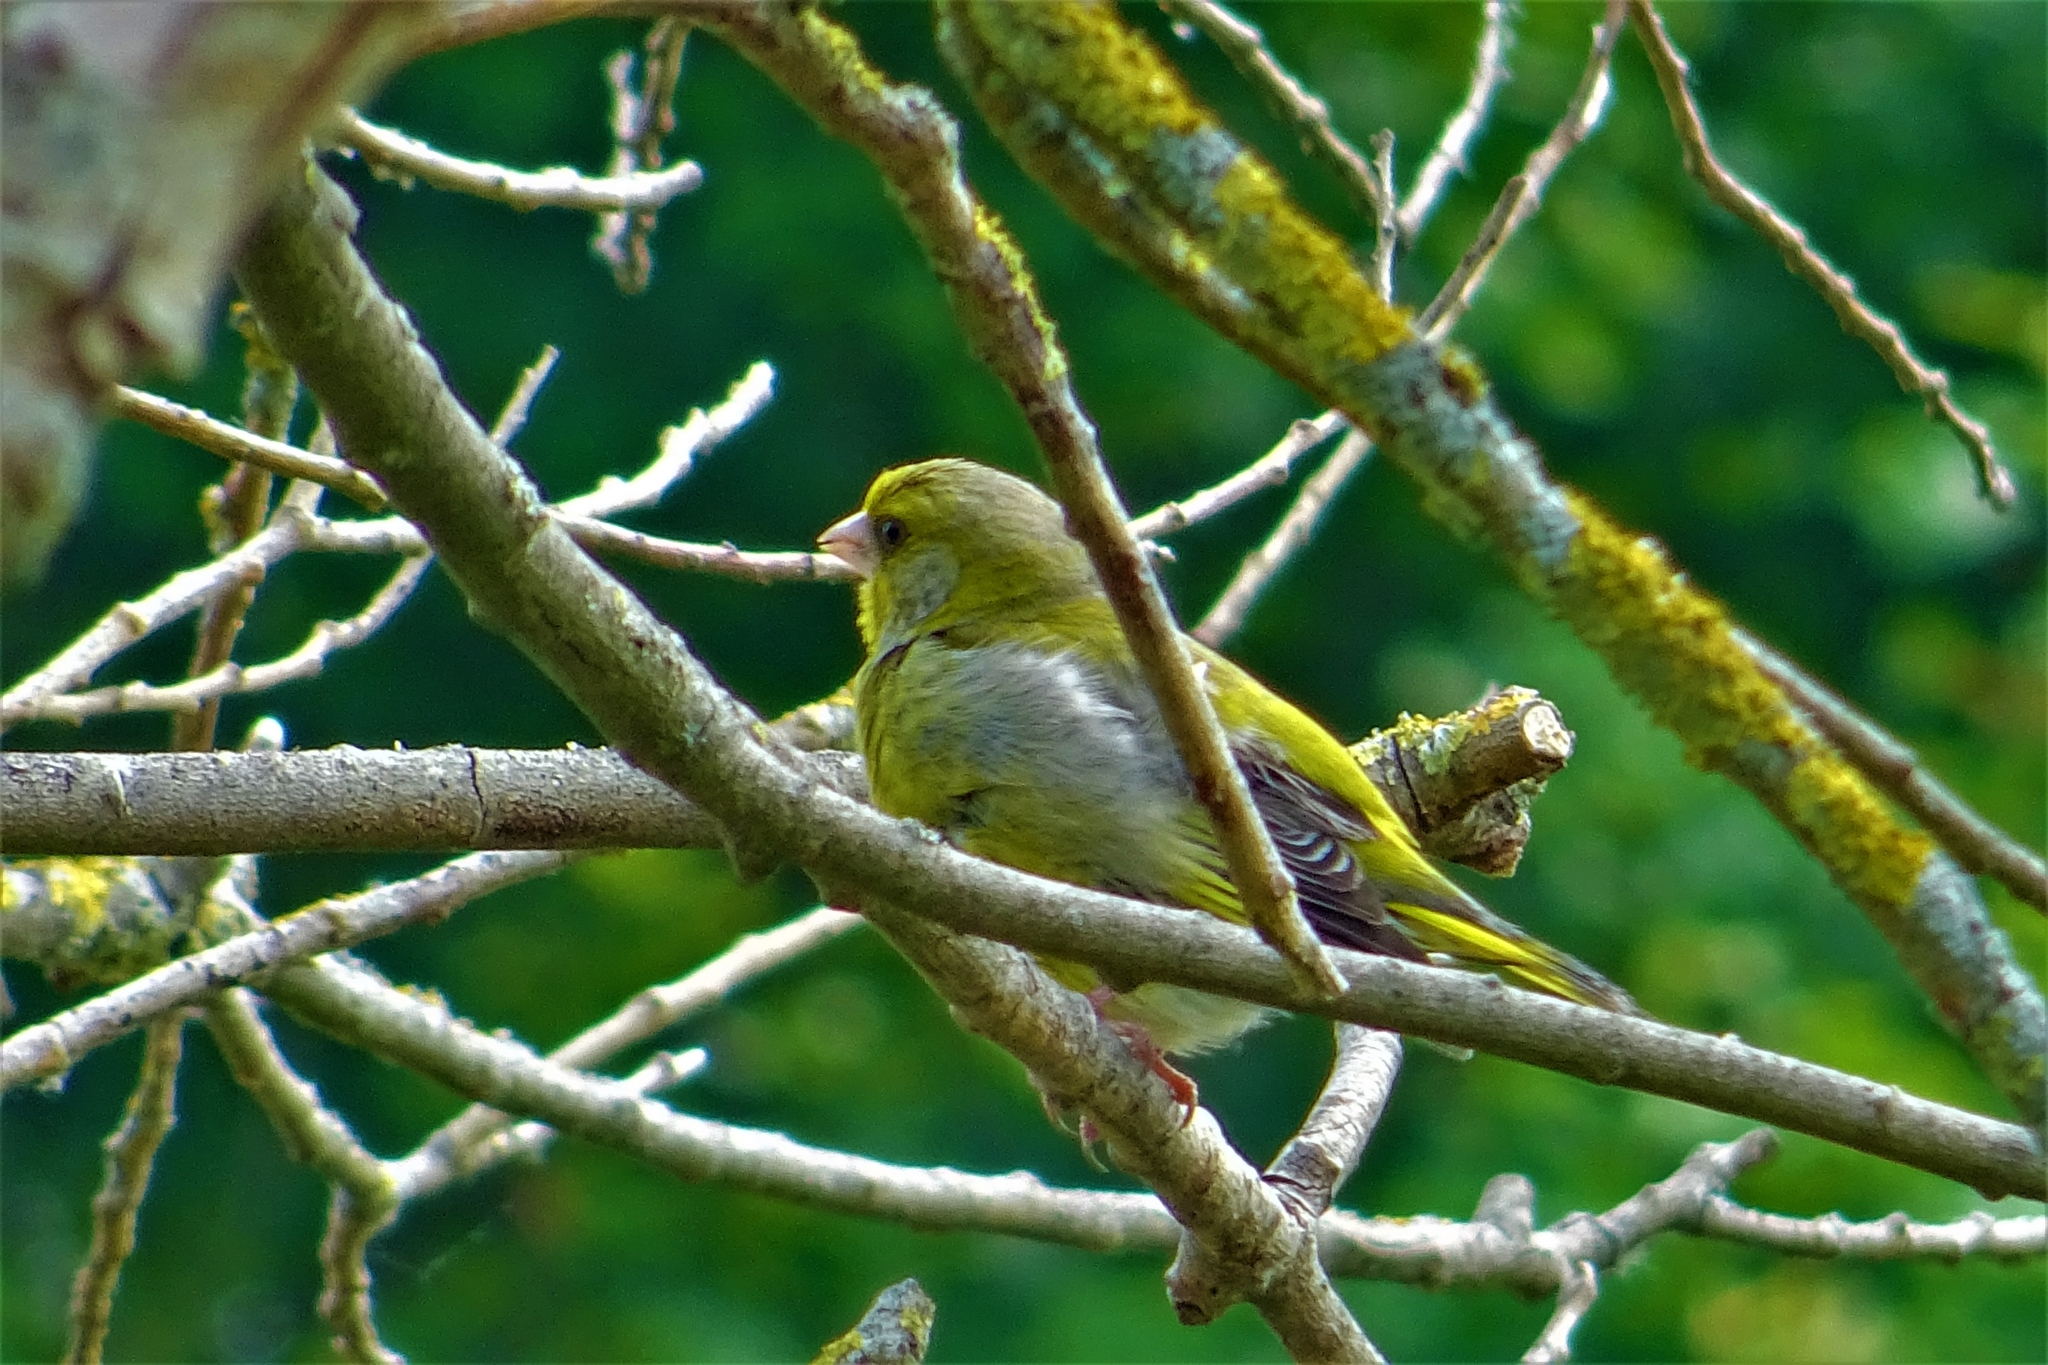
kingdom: Plantae
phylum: Tracheophyta
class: Liliopsida
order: Poales
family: Poaceae
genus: Chloris
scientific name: Chloris chloris
